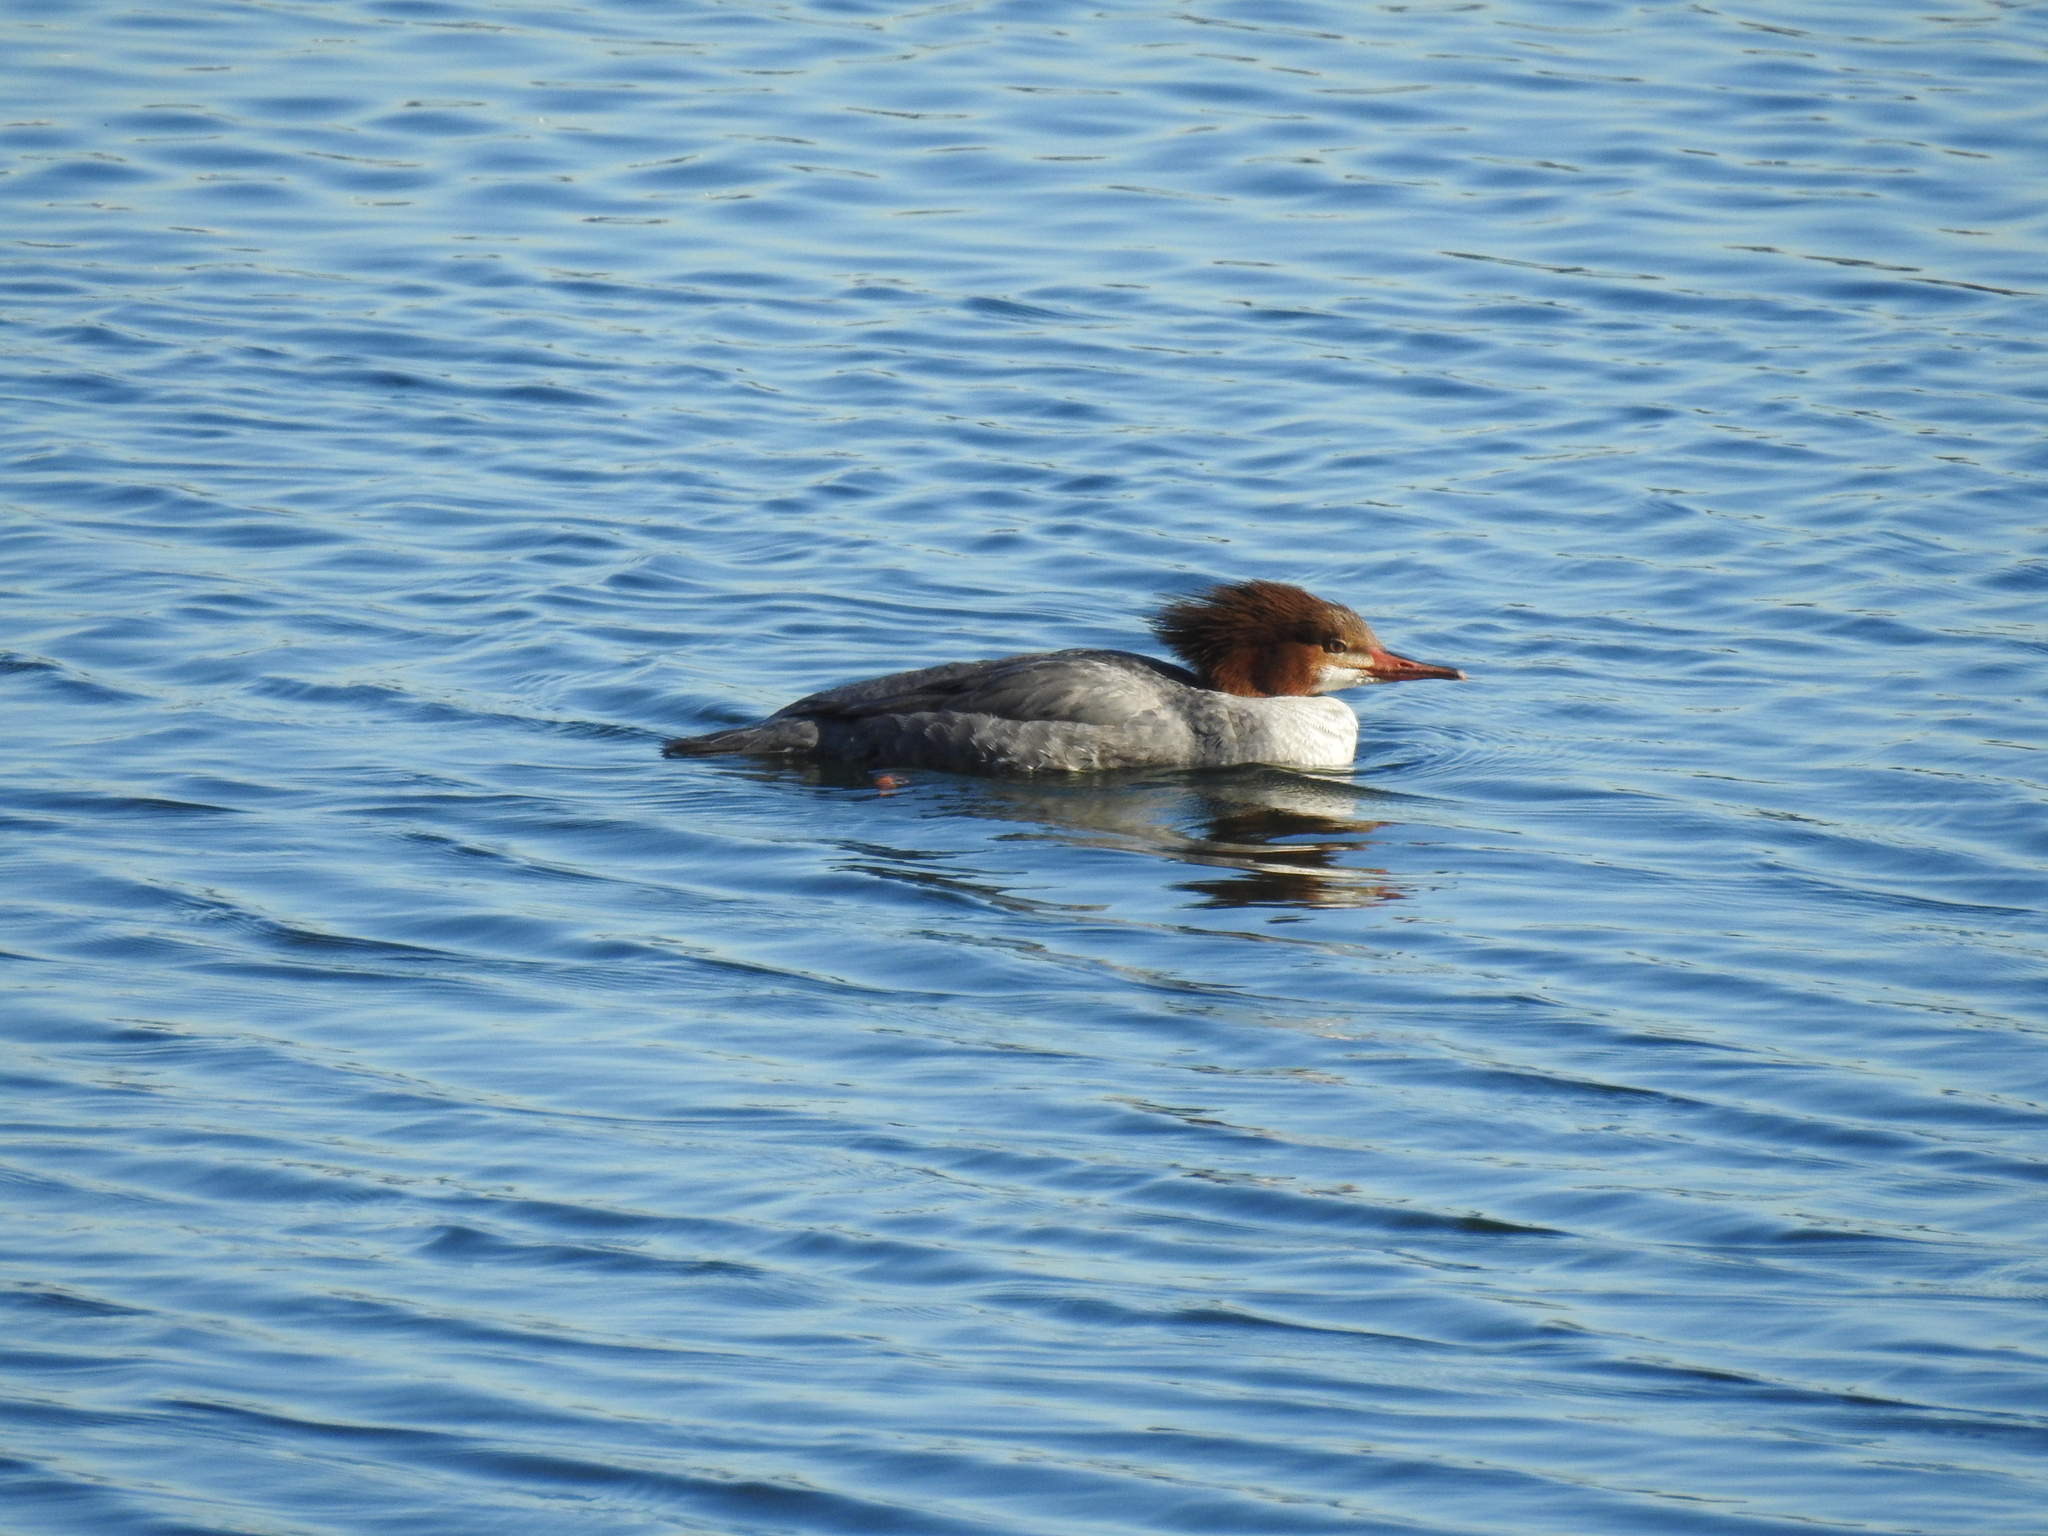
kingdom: Animalia
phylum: Chordata
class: Aves
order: Anseriformes
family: Anatidae
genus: Mergus
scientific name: Mergus merganser
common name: Common merganser
